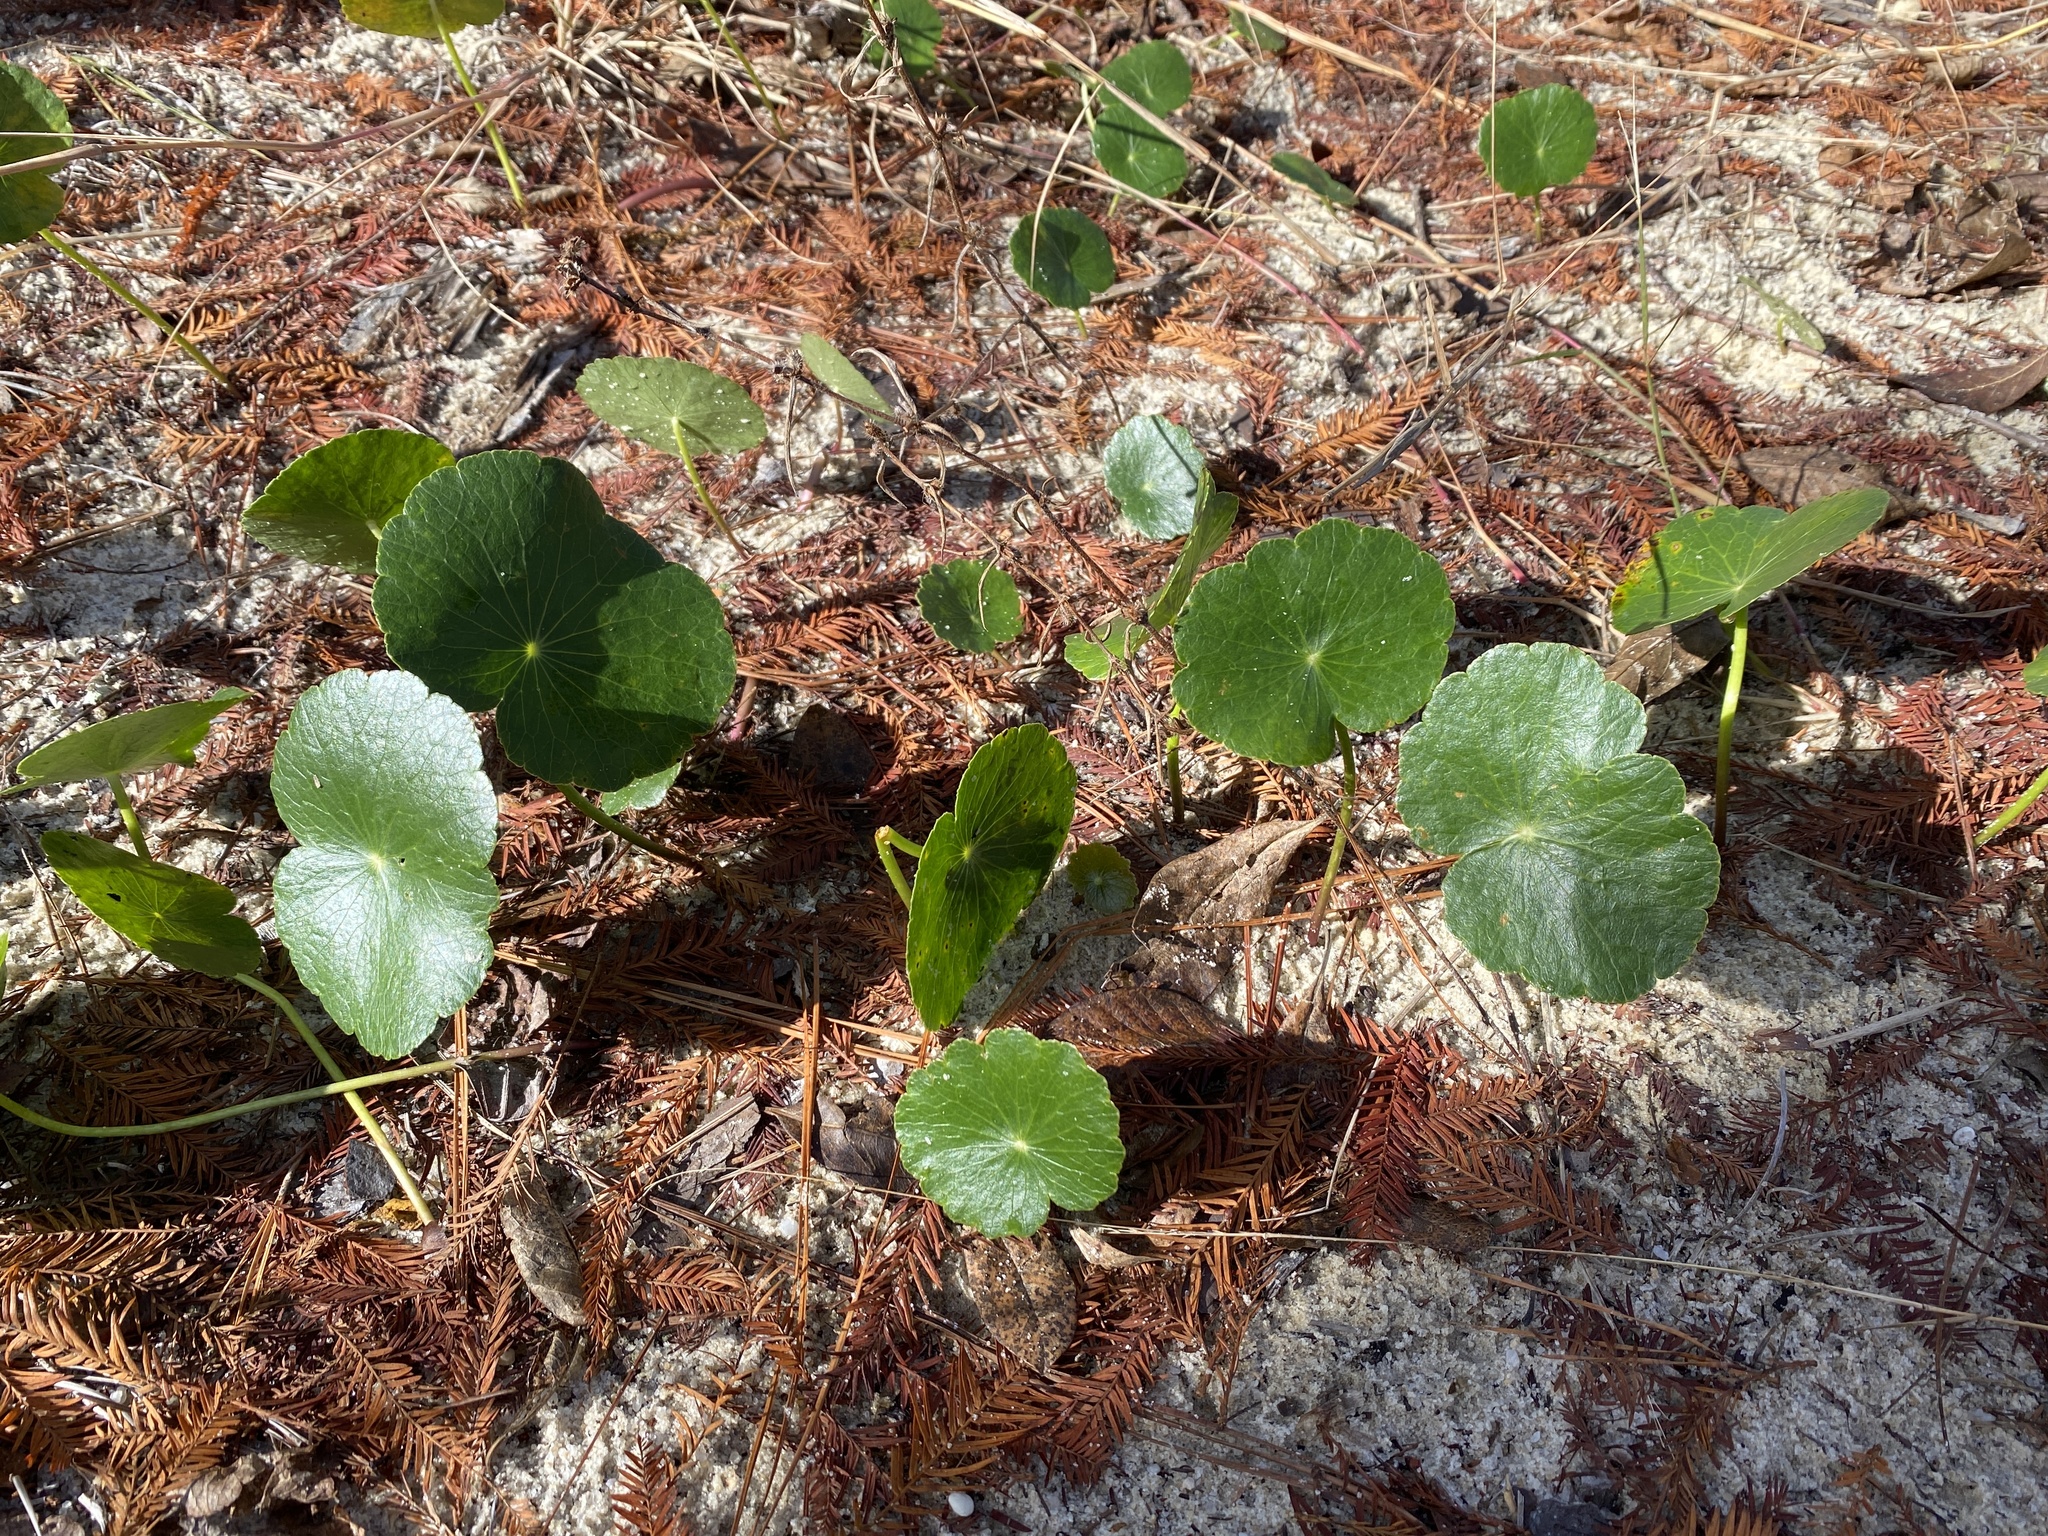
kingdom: Plantae
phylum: Tracheophyta
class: Magnoliopsida
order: Apiales
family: Araliaceae
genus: Hydrocotyle
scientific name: Hydrocotyle bonariensis
